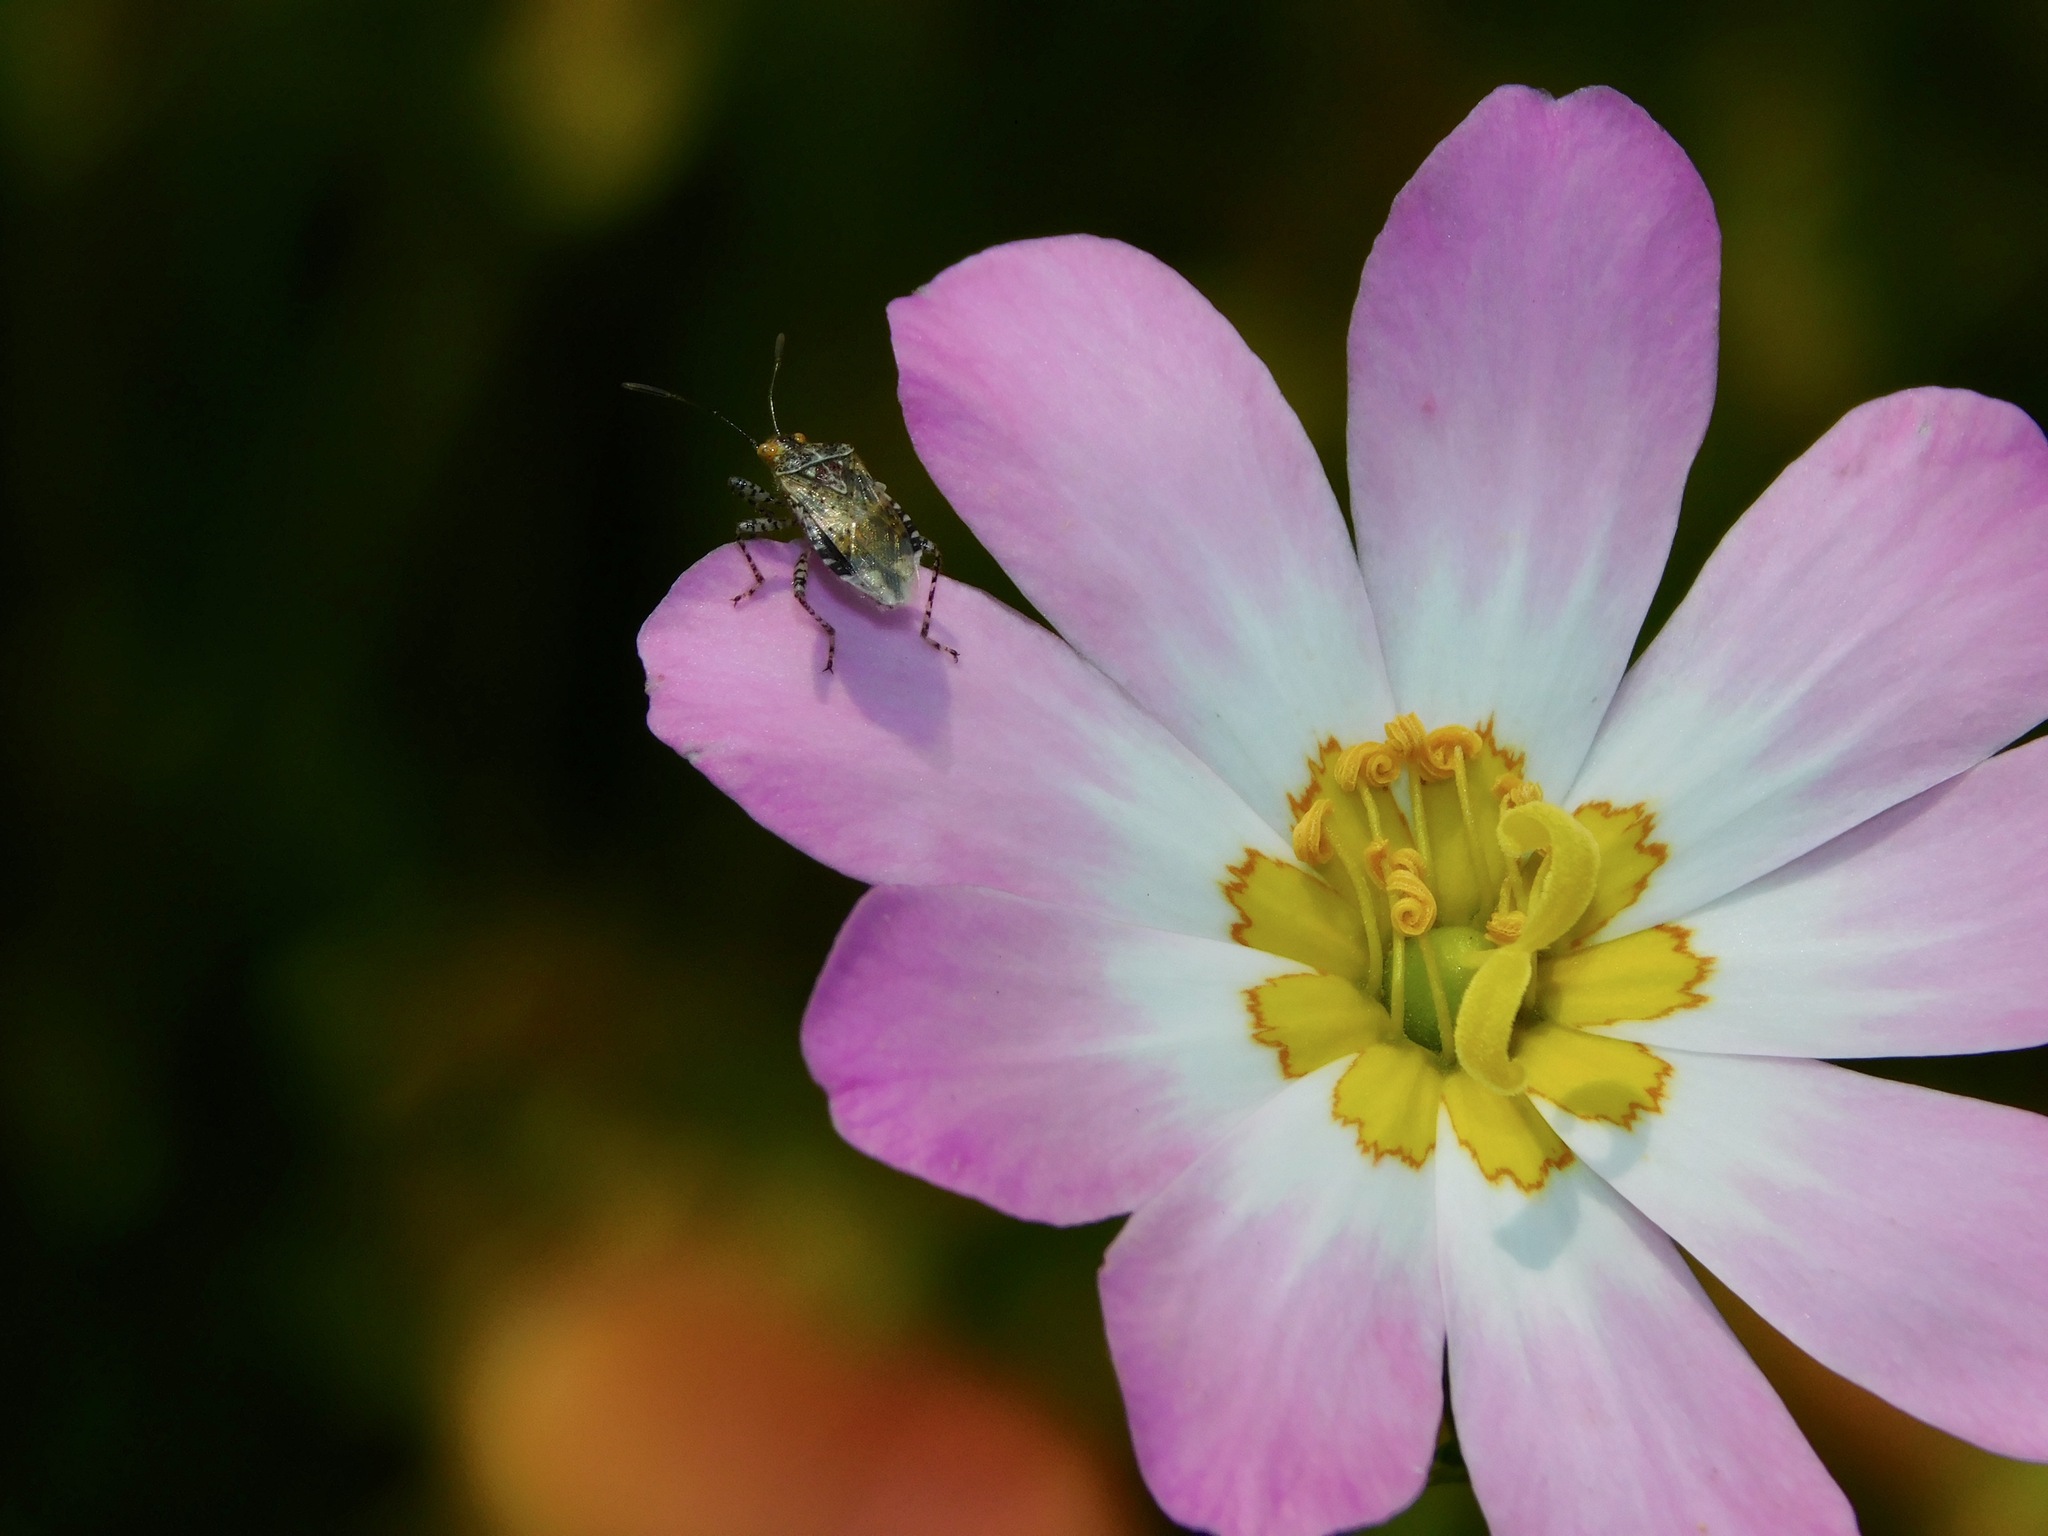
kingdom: Animalia
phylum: Arthropoda
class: Insecta
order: Hemiptera
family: Rhopalidae
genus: Niesthrea
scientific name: Niesthrea louisianica
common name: Scentless plant bug
